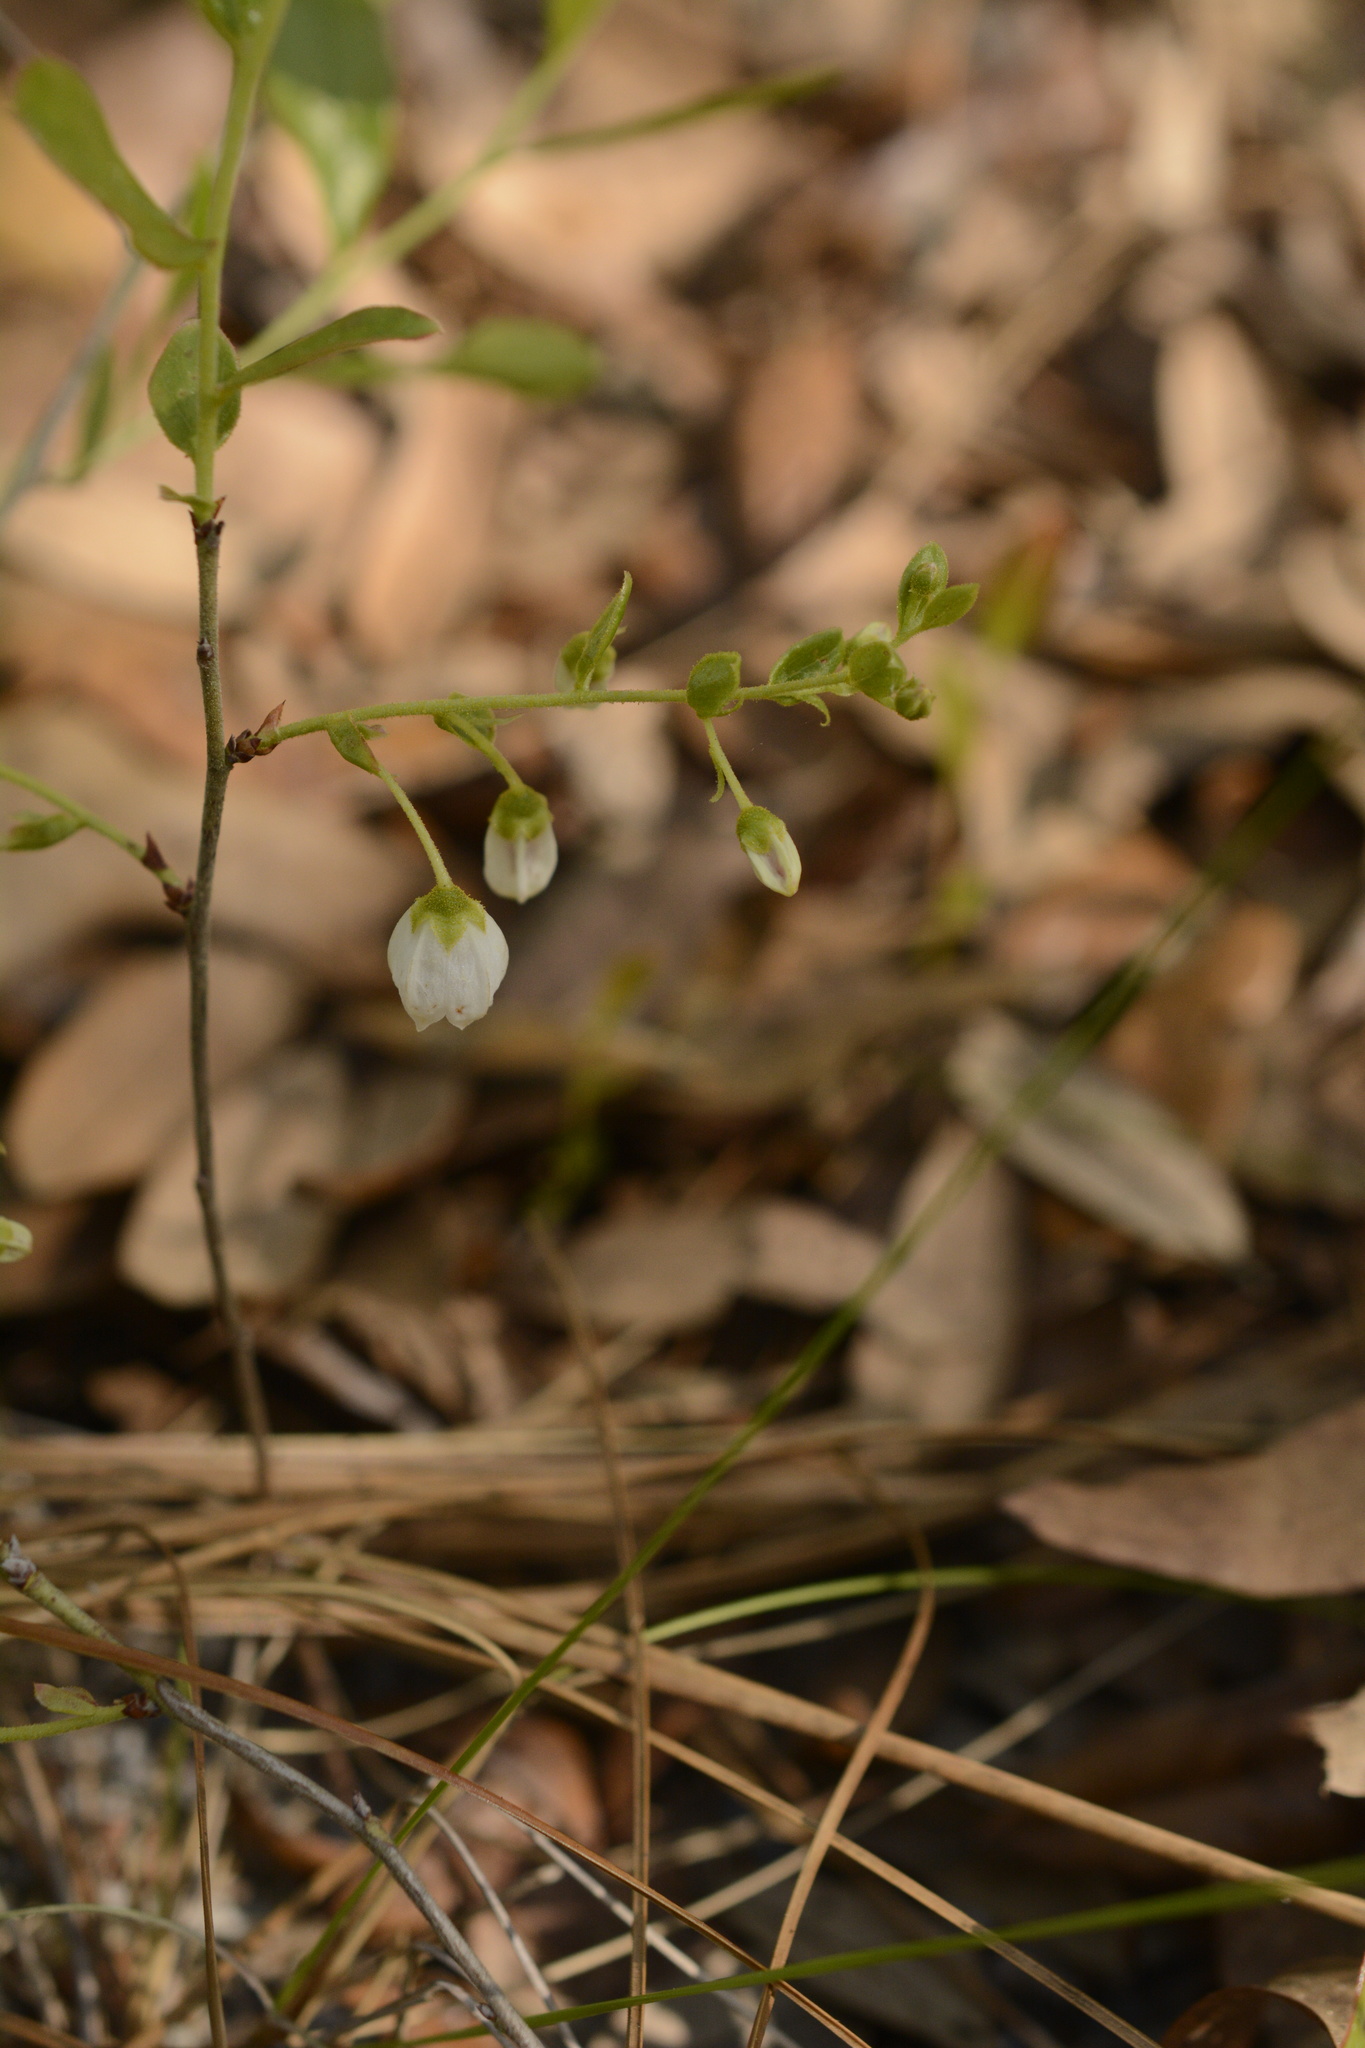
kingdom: Plantae
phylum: Tracheophyta
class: Magnoliopsida
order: Ericales
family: Ericaceae
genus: Gaylussacia
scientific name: Gaylussacia dumosa
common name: Dwarf huckleberry
